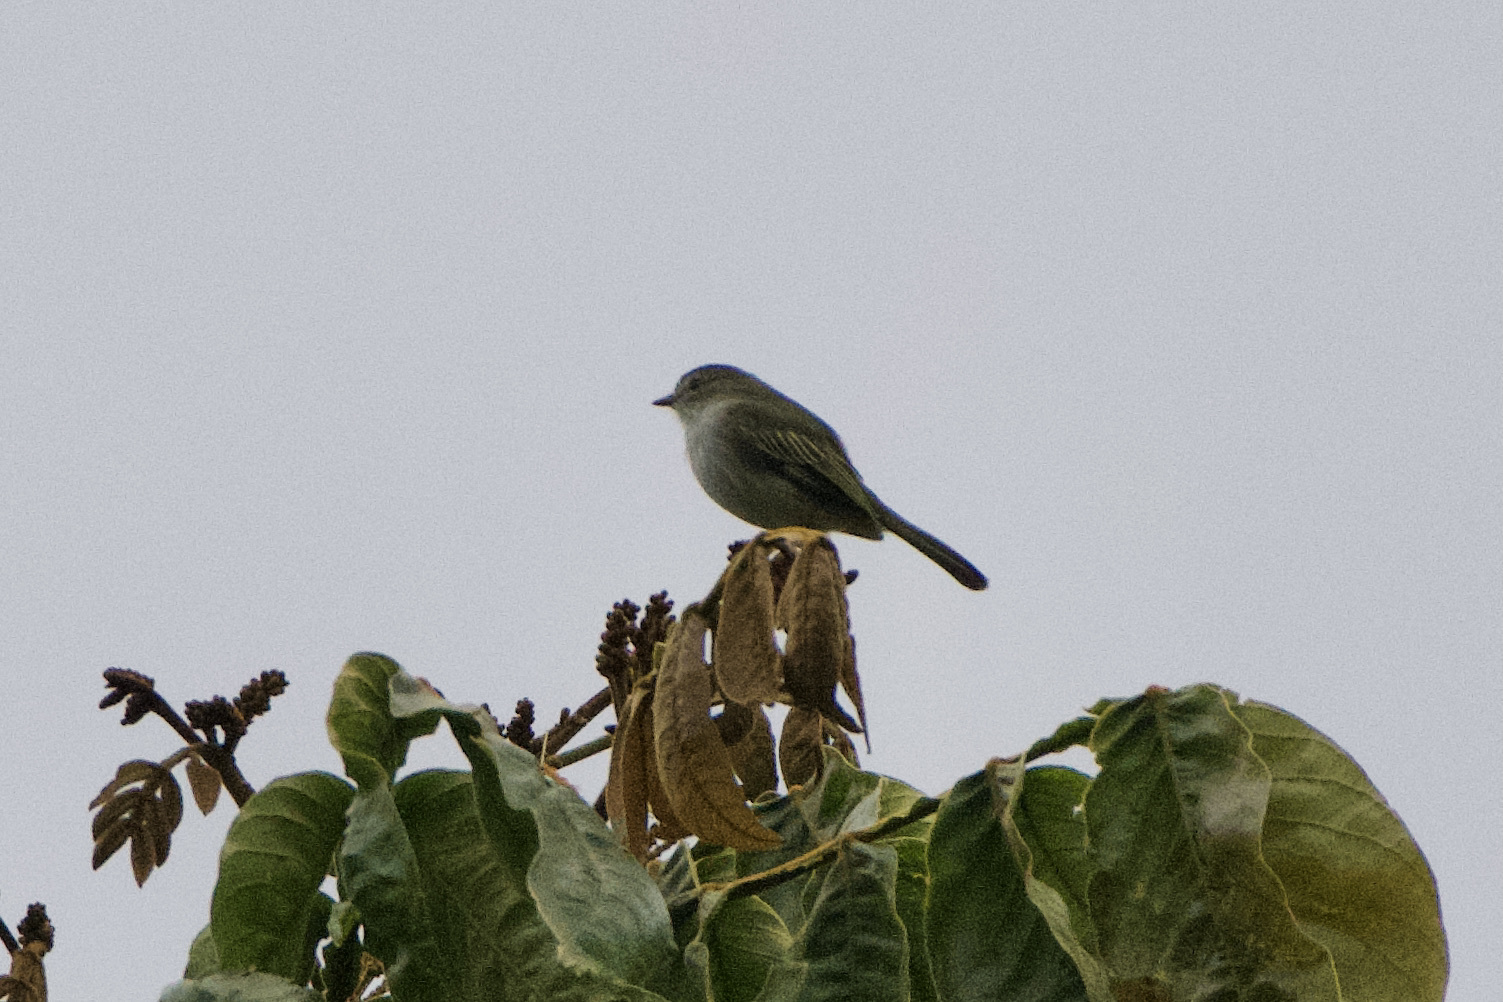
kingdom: Animalia
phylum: Chordata
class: Aves
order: Passeriformes
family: Tyrannidae
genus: Zimmerius
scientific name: Zimmerius vilissimus
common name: Paltry tyrannulet
